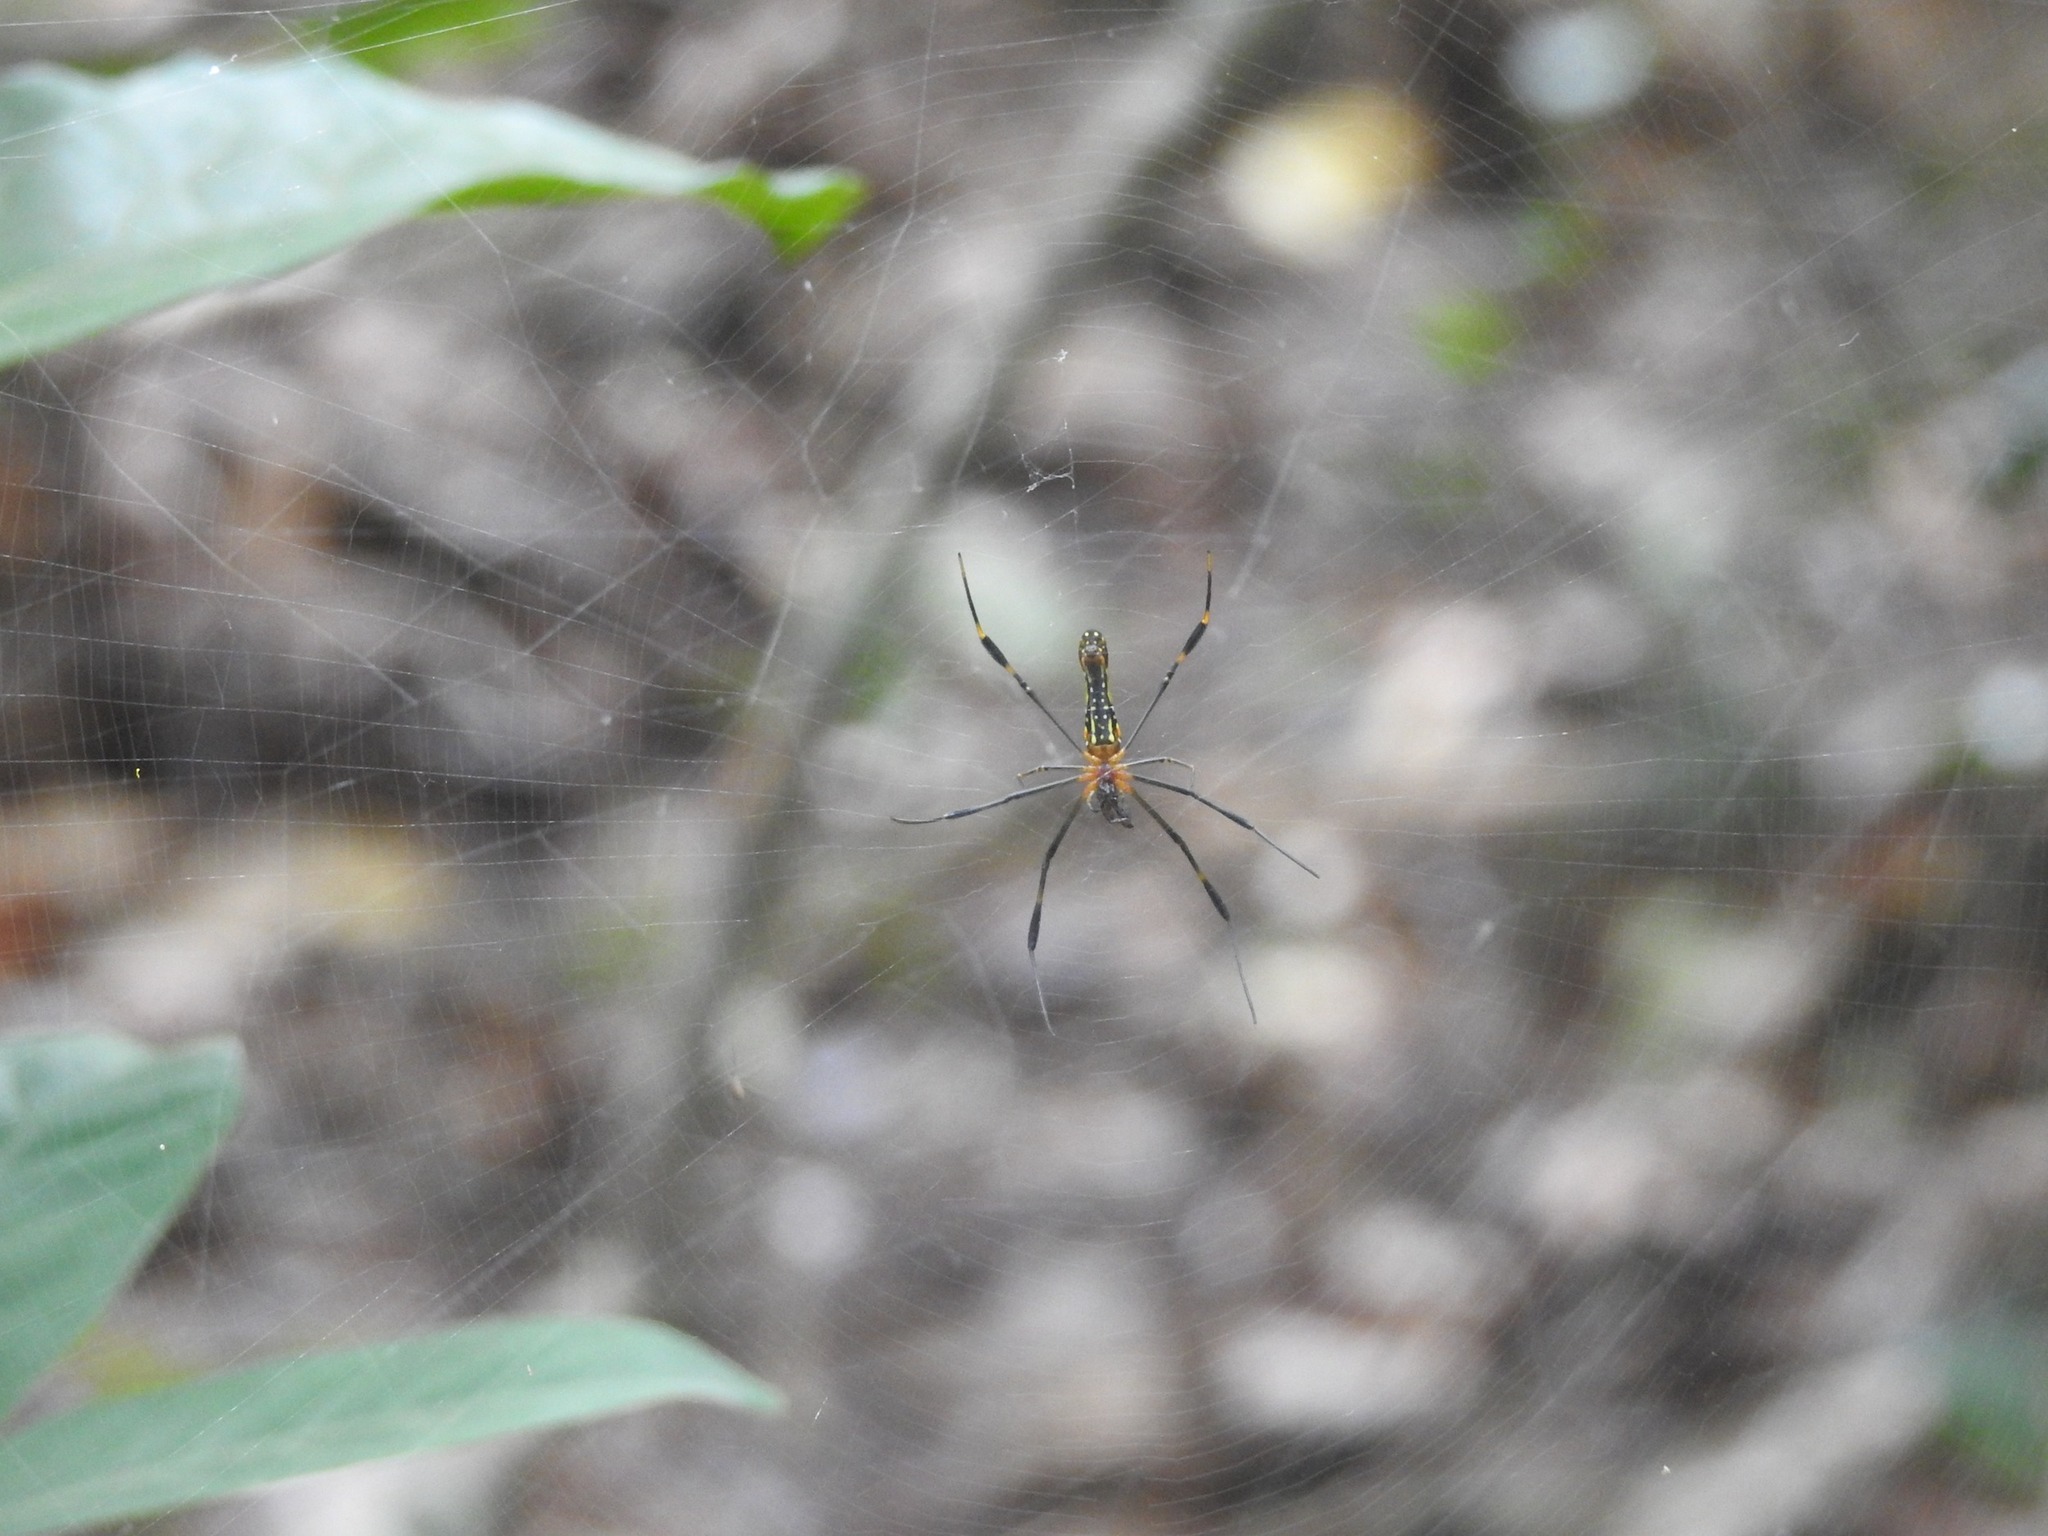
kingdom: Animalia
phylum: Arthropoda
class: Arachnida
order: Araneae
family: Araneidae
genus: Nephila
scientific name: Nephila pilipes
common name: Giant golden orb weaver
